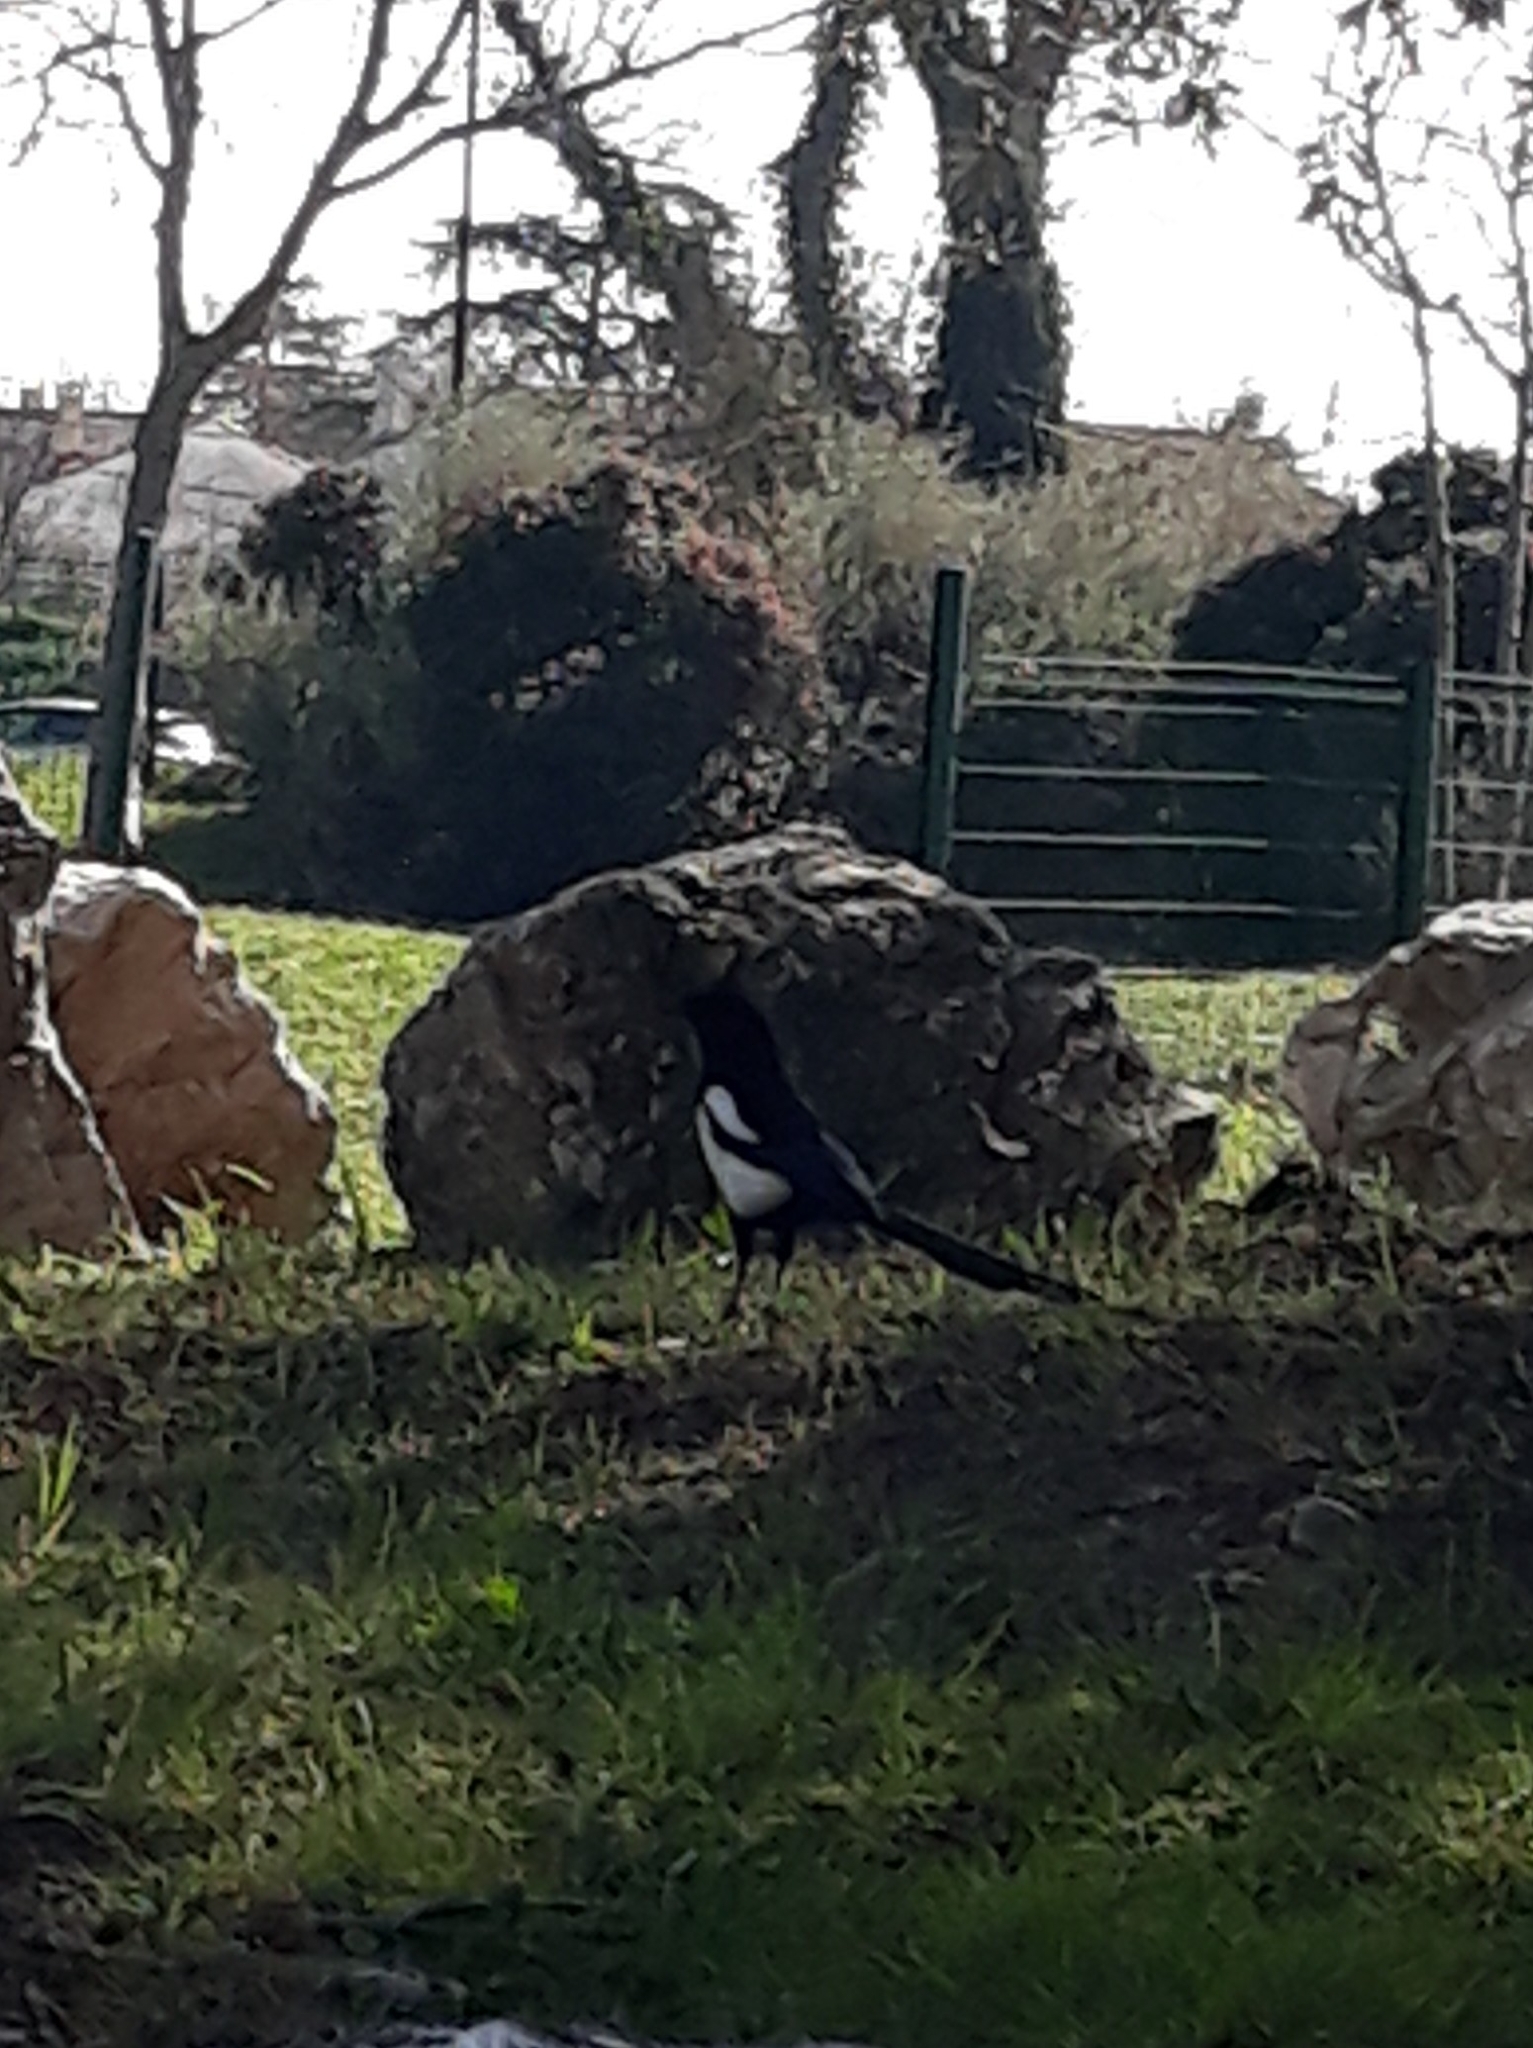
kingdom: Animalia
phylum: Chordata
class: Aves
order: Passeriformes
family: Corvidae
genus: Pica
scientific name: Pica pica
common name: Eurasian magpie
